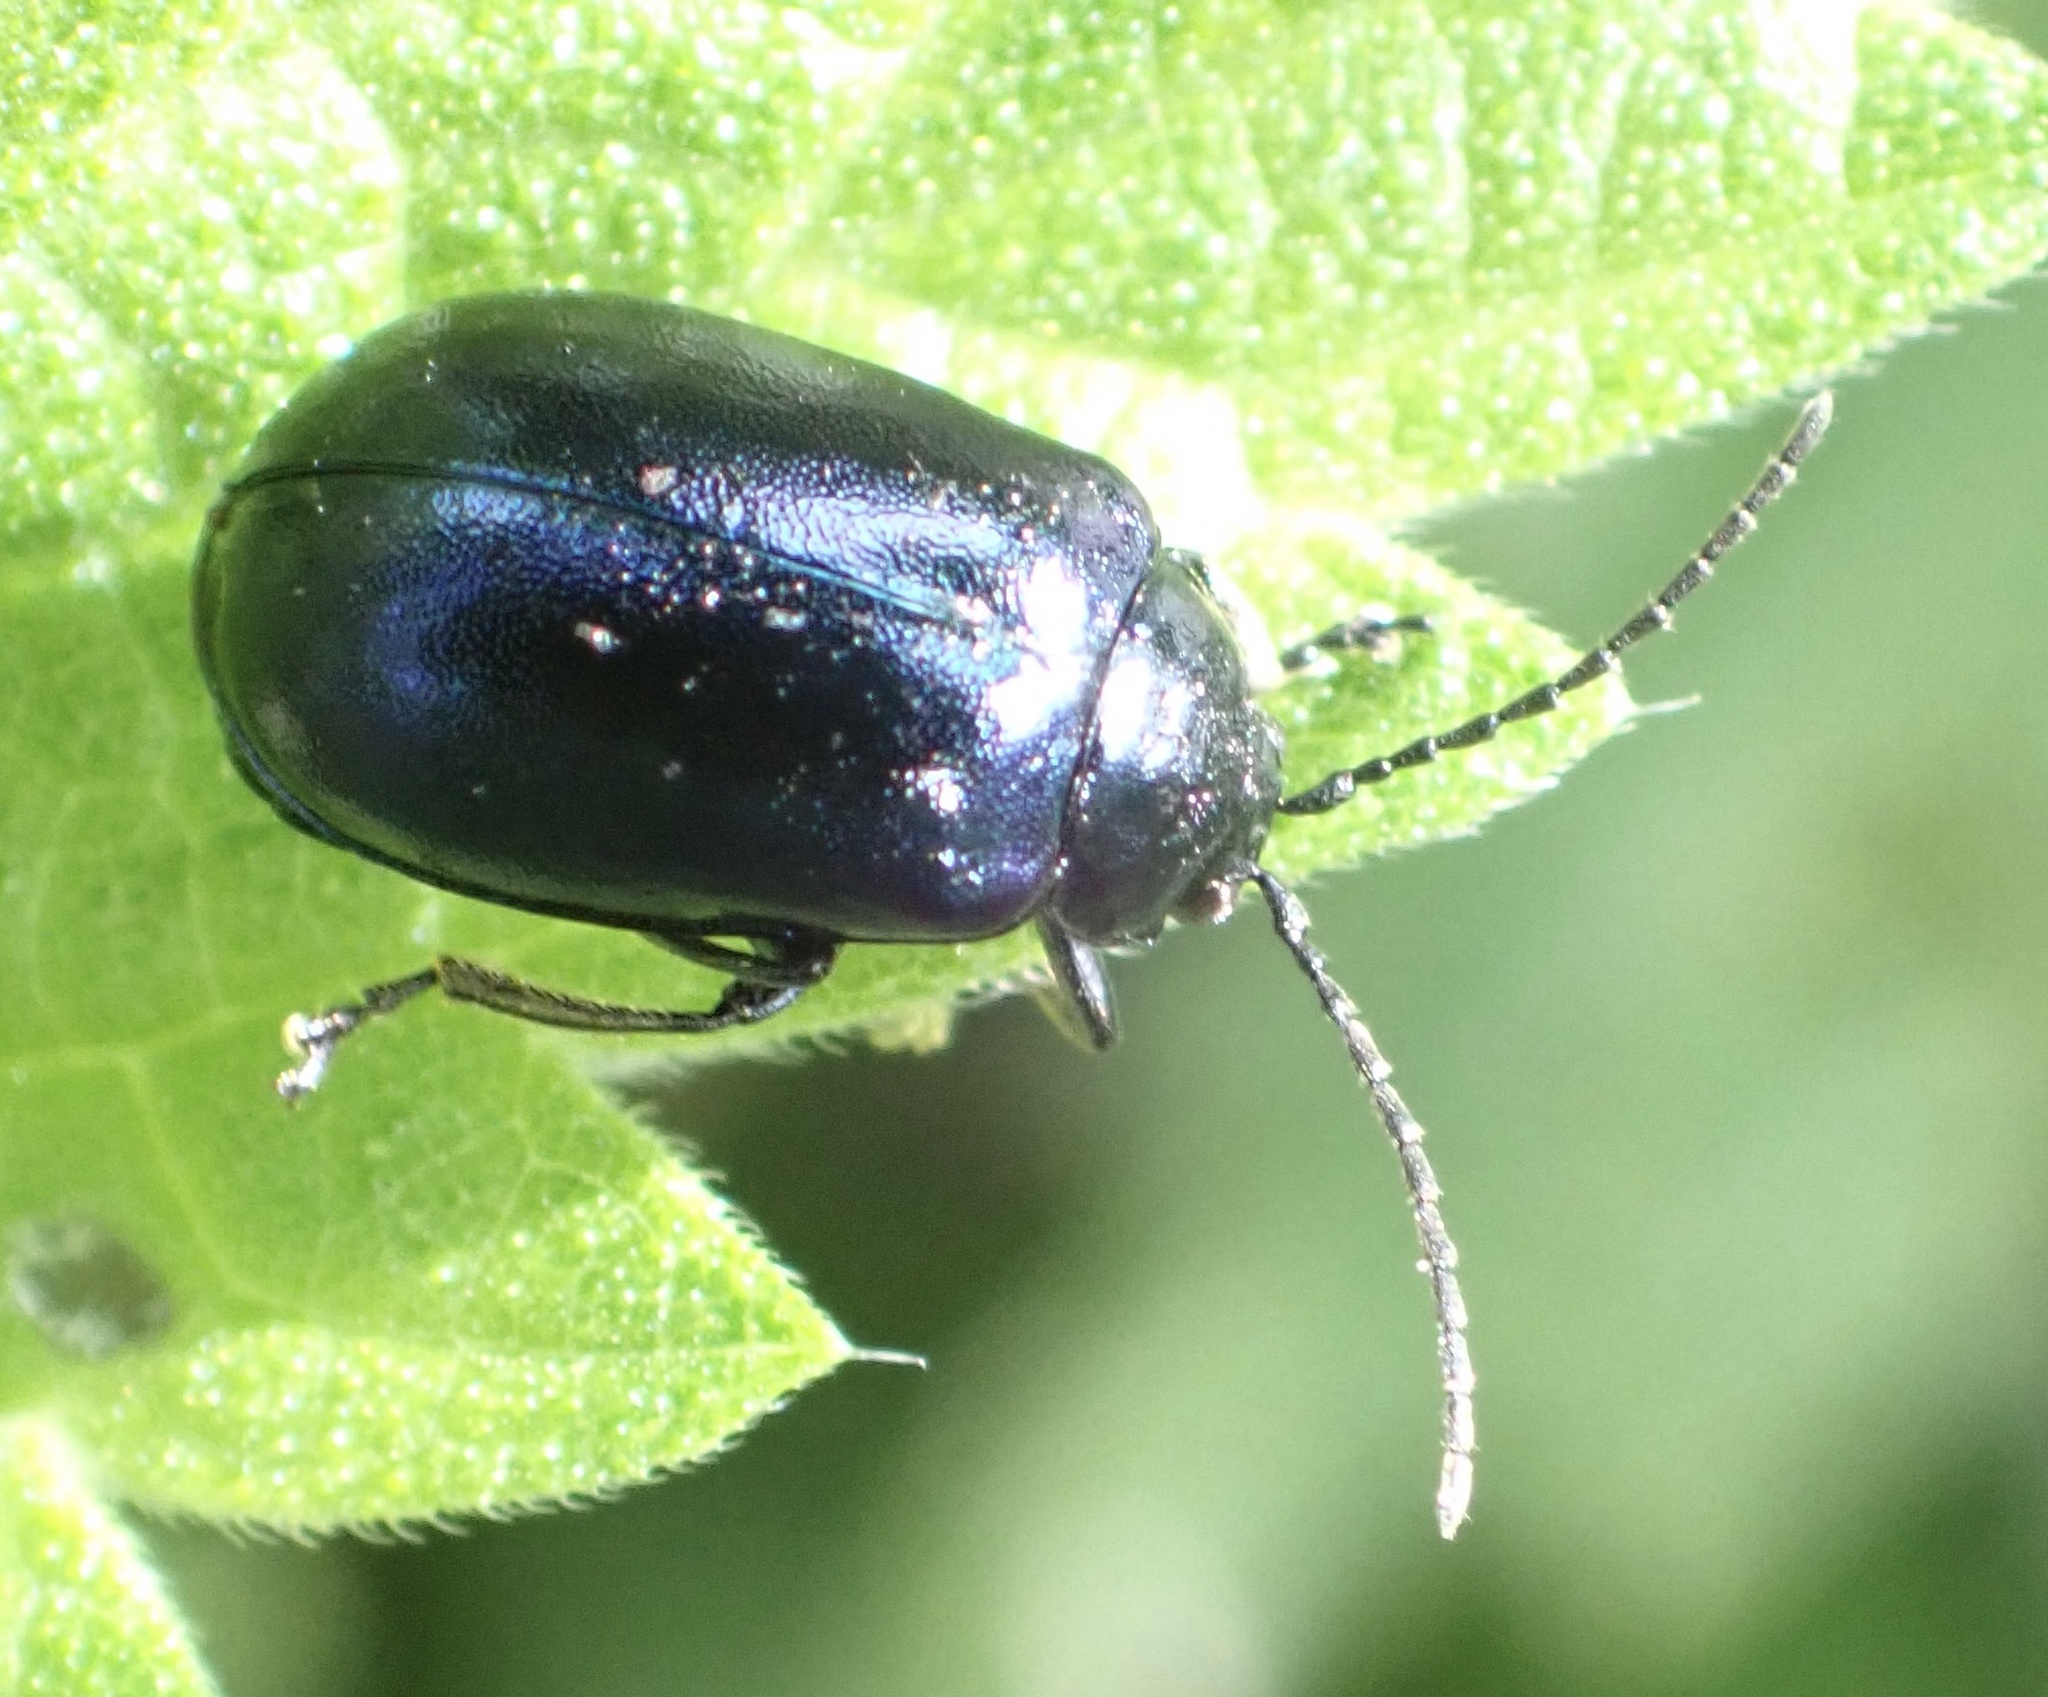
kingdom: Animalia
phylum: Arthropoda
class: Insecta
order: Coleoptera
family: Chrysomelidae
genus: Agelastica
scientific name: Agelastica alni
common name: Alder leaf beetle
